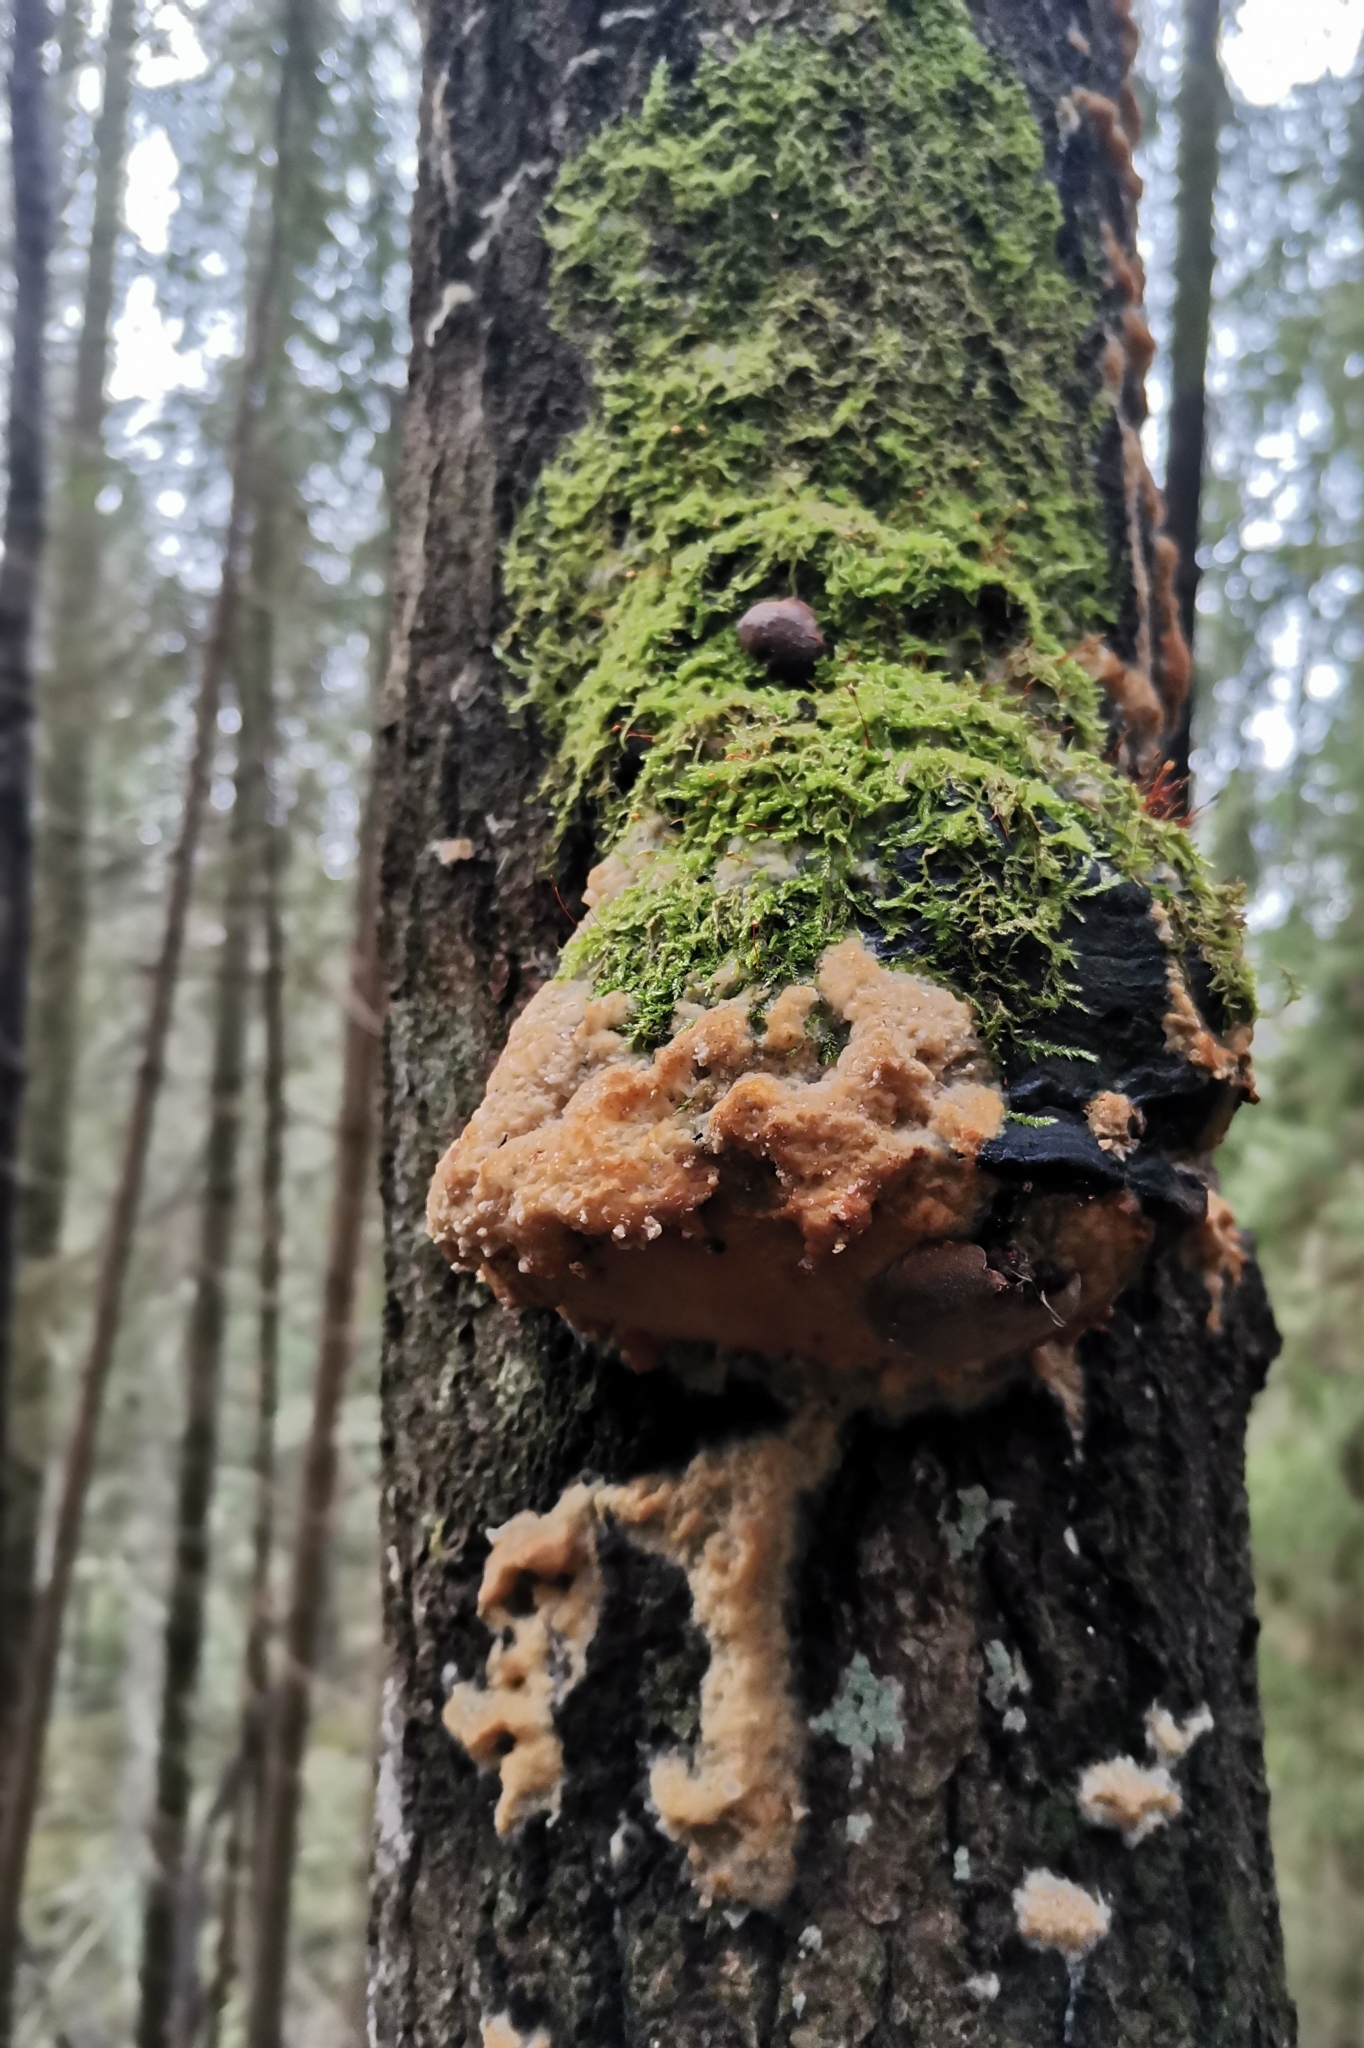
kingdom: Fungi
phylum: Basidiomycota
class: Agaricomycetes
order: Polyporales
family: Steccherinaceae
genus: Junghuhnia
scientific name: Junghuhnia pseudozilingiana
